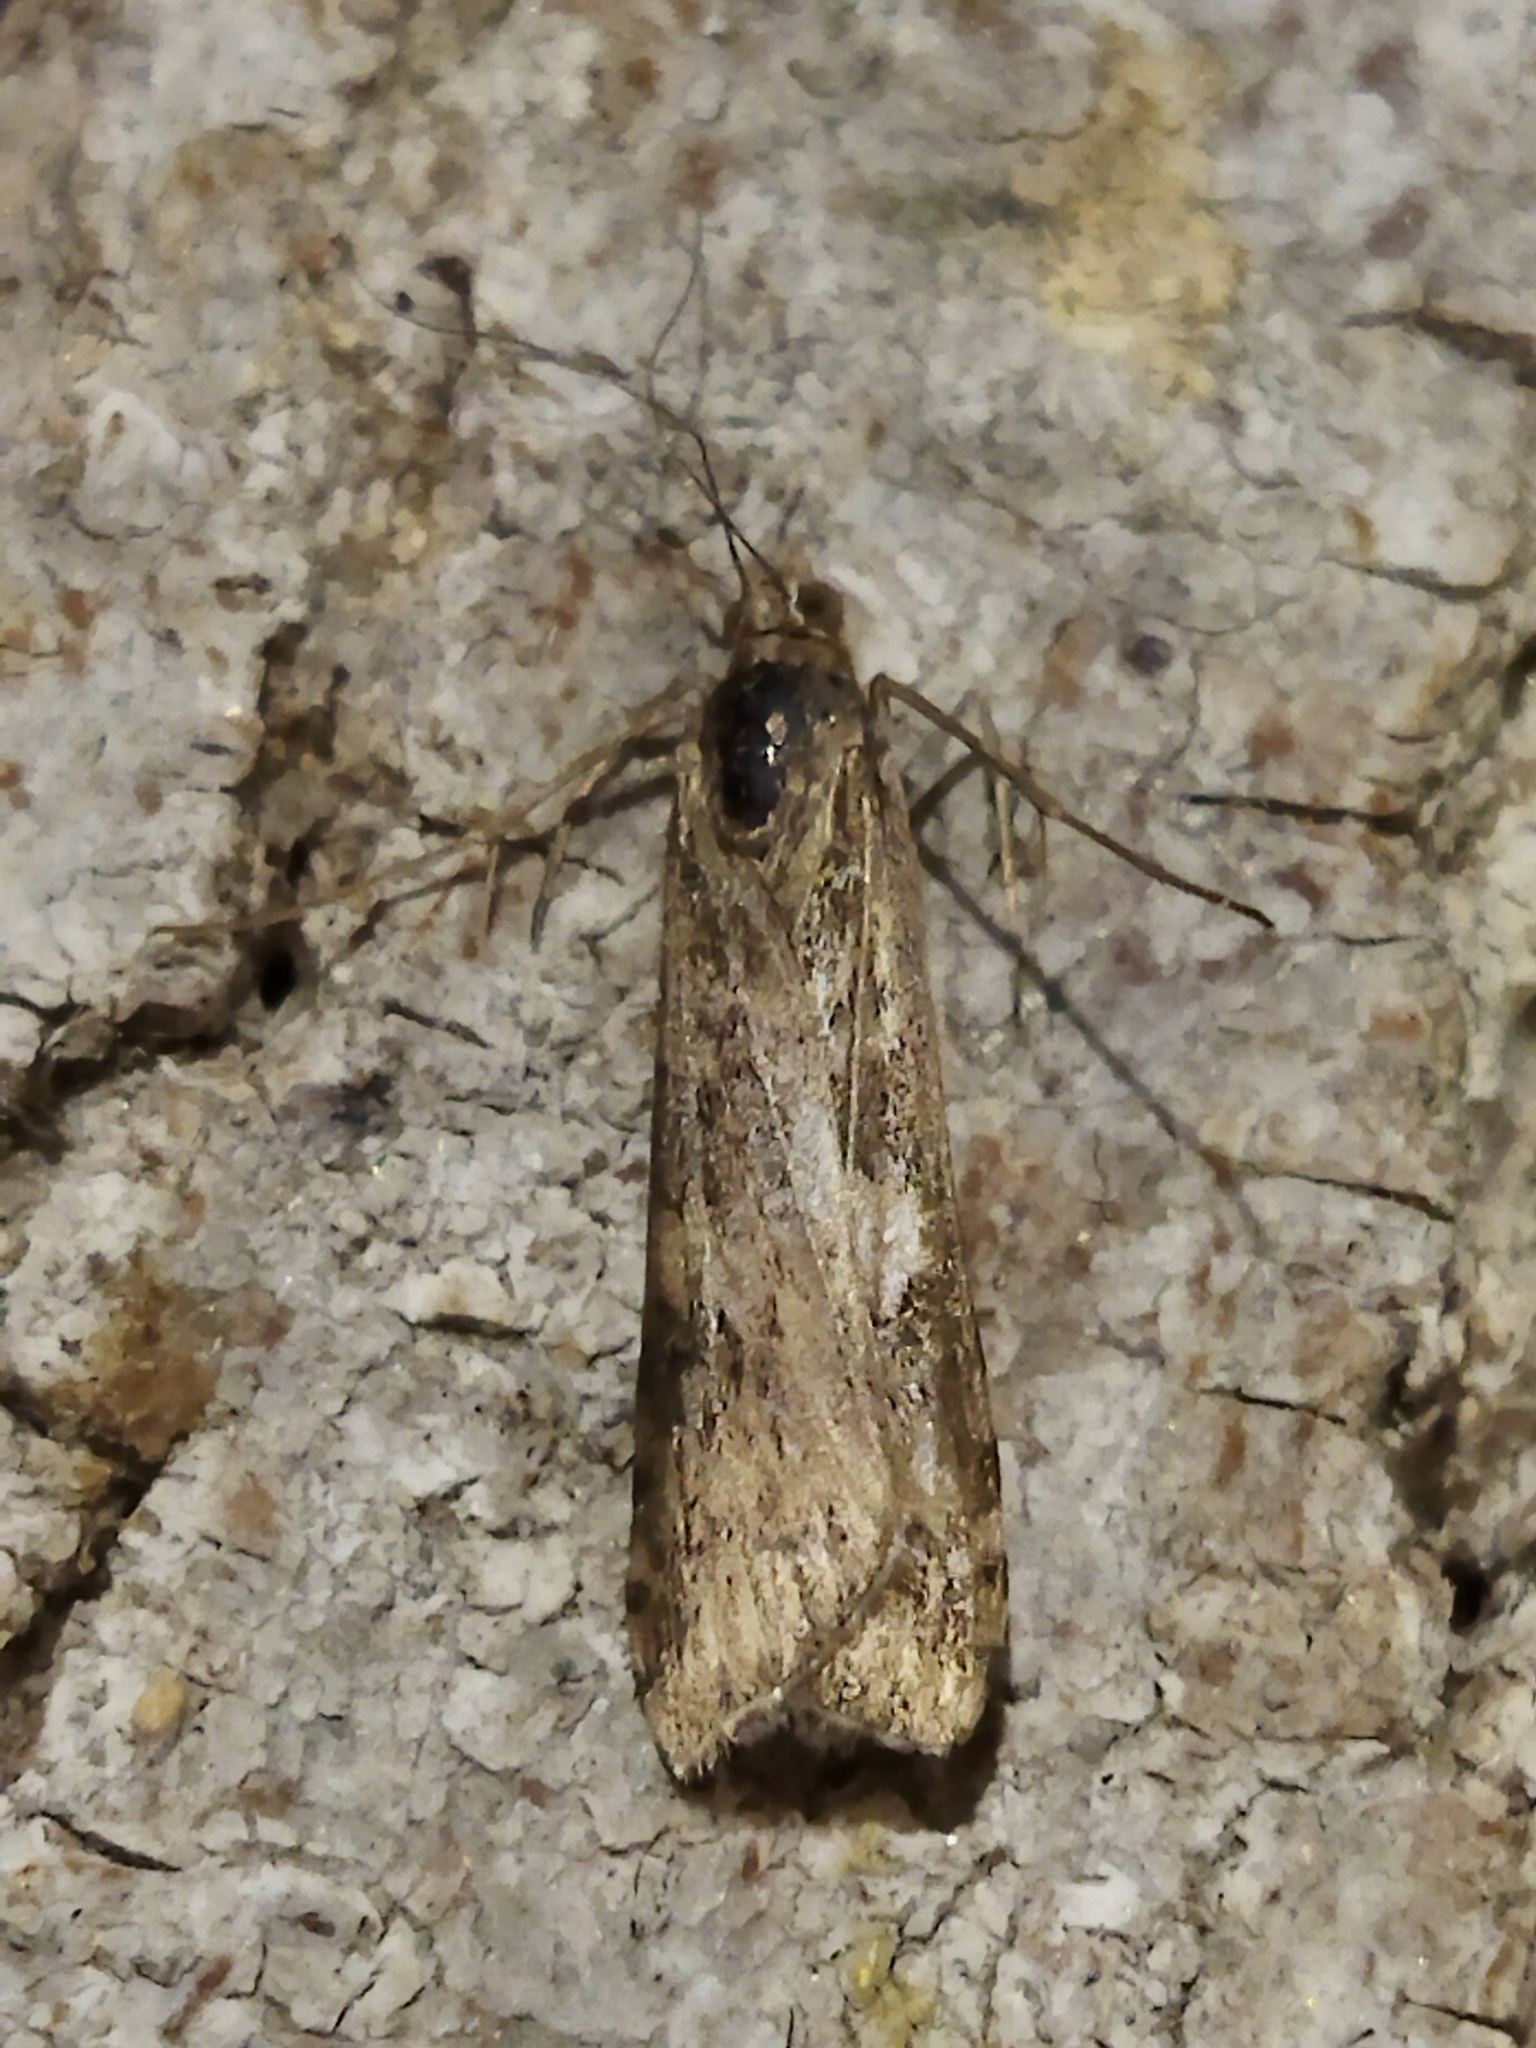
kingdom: Animalia
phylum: Arthropoda
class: Insecta
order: Lepidoptera
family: Crambidae
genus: Nomophila
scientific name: Nomophila noctuella
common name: Rush veneer
